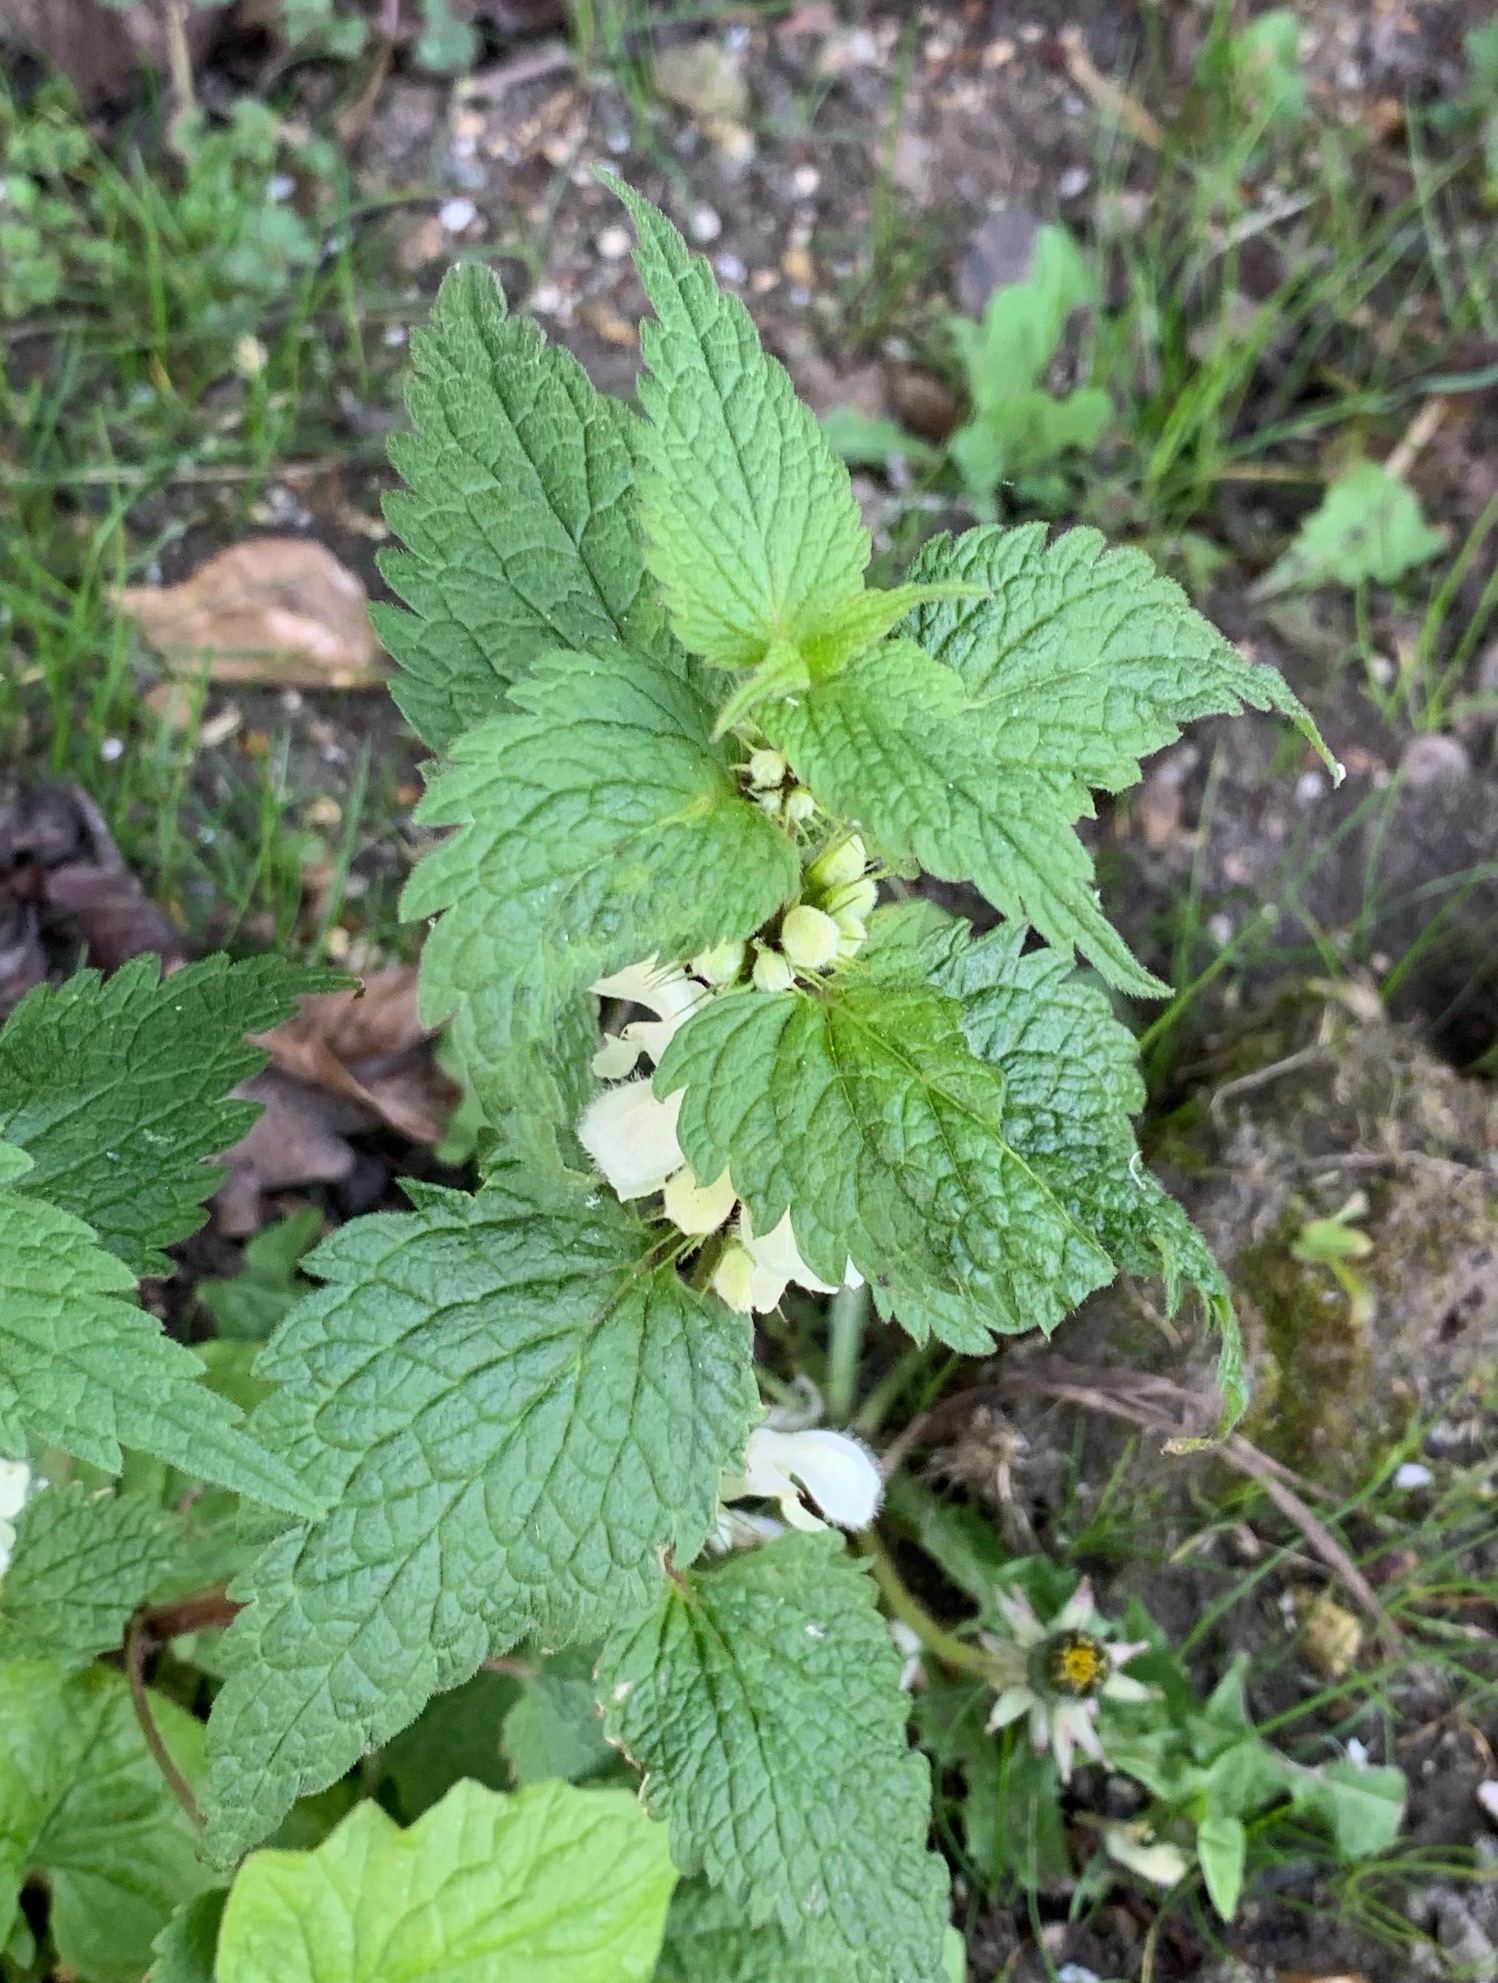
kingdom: Plantae
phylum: Tracheophyta
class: Magnoliopsida
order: Lamiales
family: Lamiaceae
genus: Lamium
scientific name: Lamium album
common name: White dead-nettle
